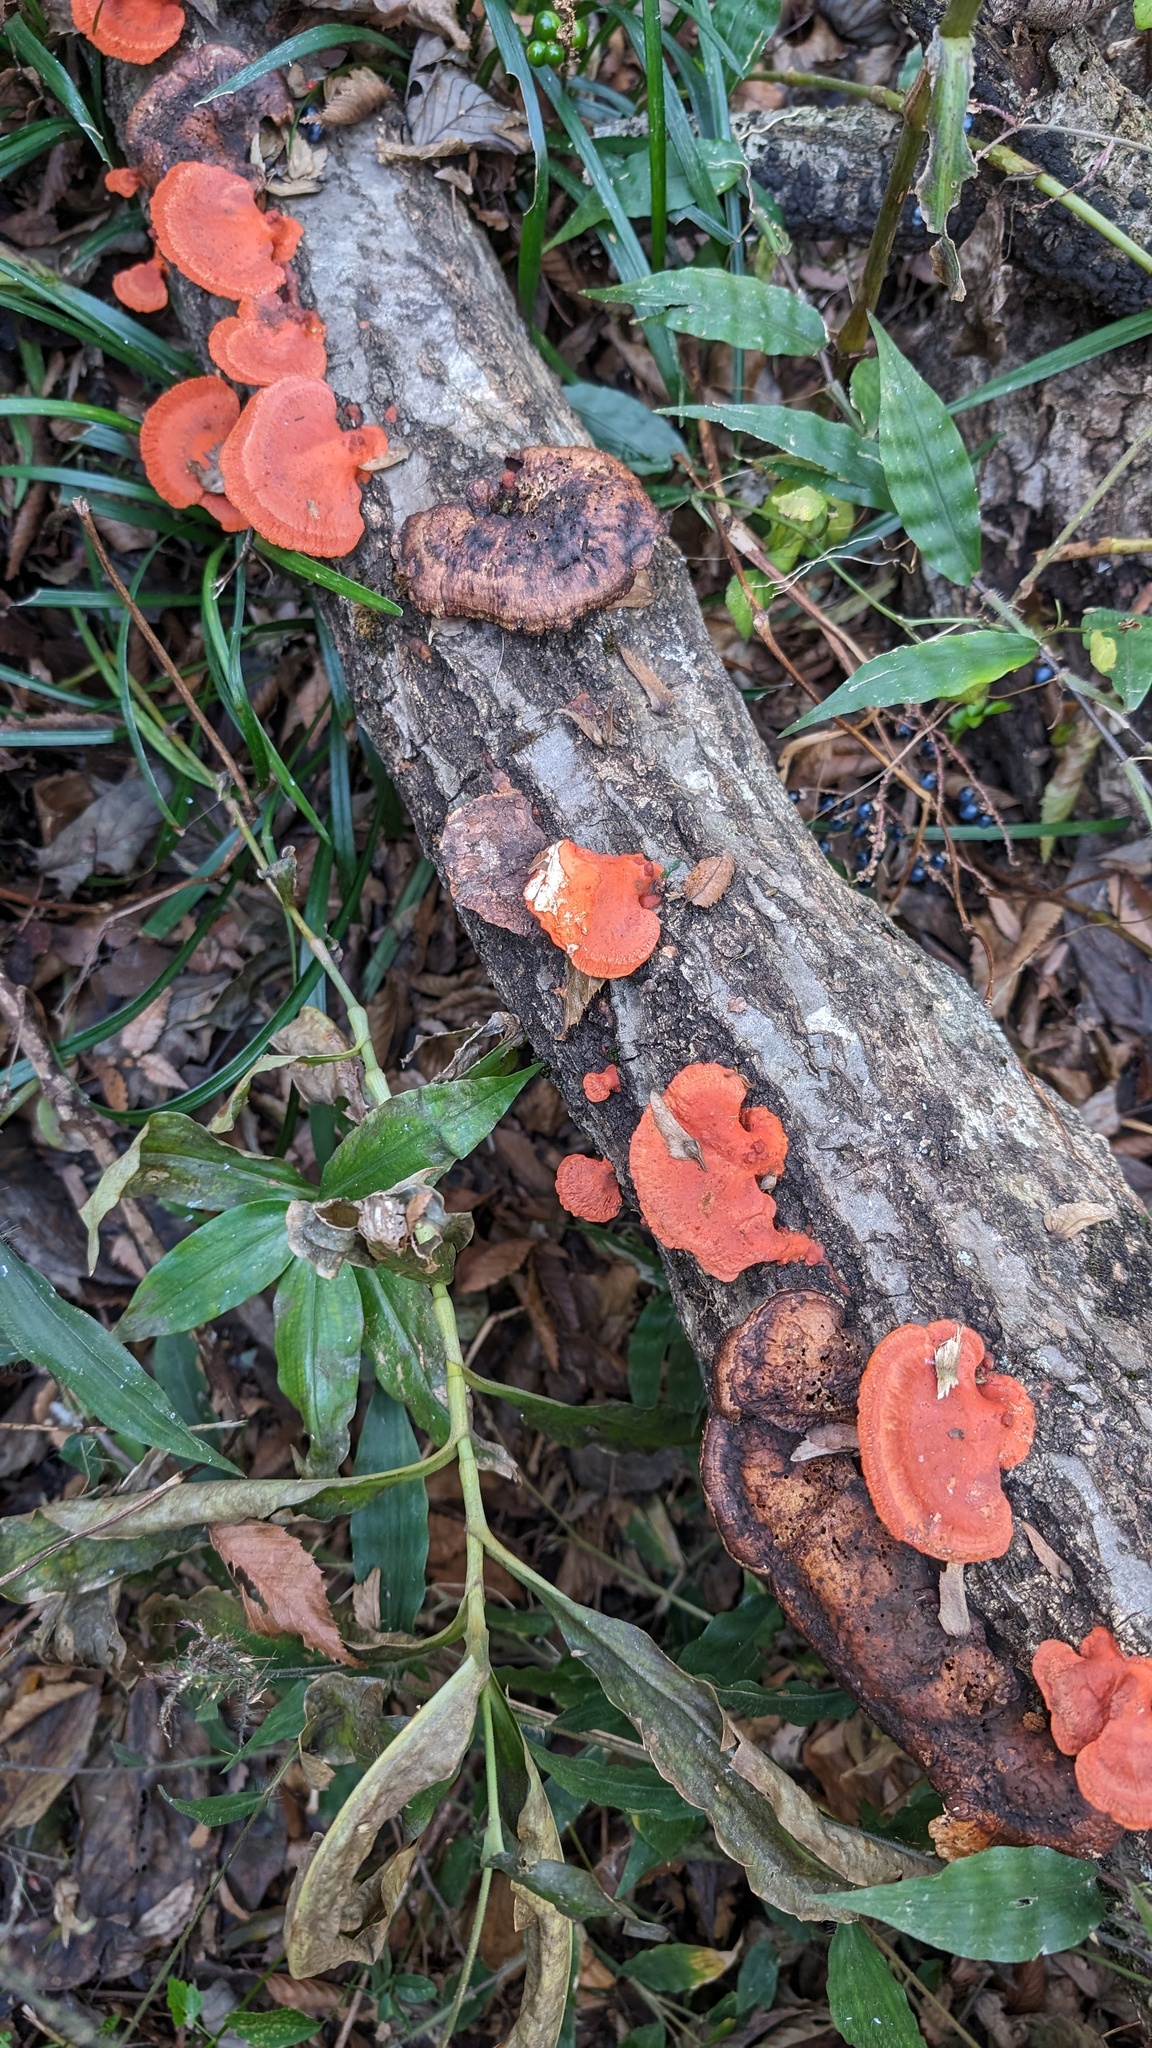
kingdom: Fungi
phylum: Basidiomycota
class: Agaricomycetes
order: Polyporales
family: Polyporaceae
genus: Trametes
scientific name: Trametes coccinea
